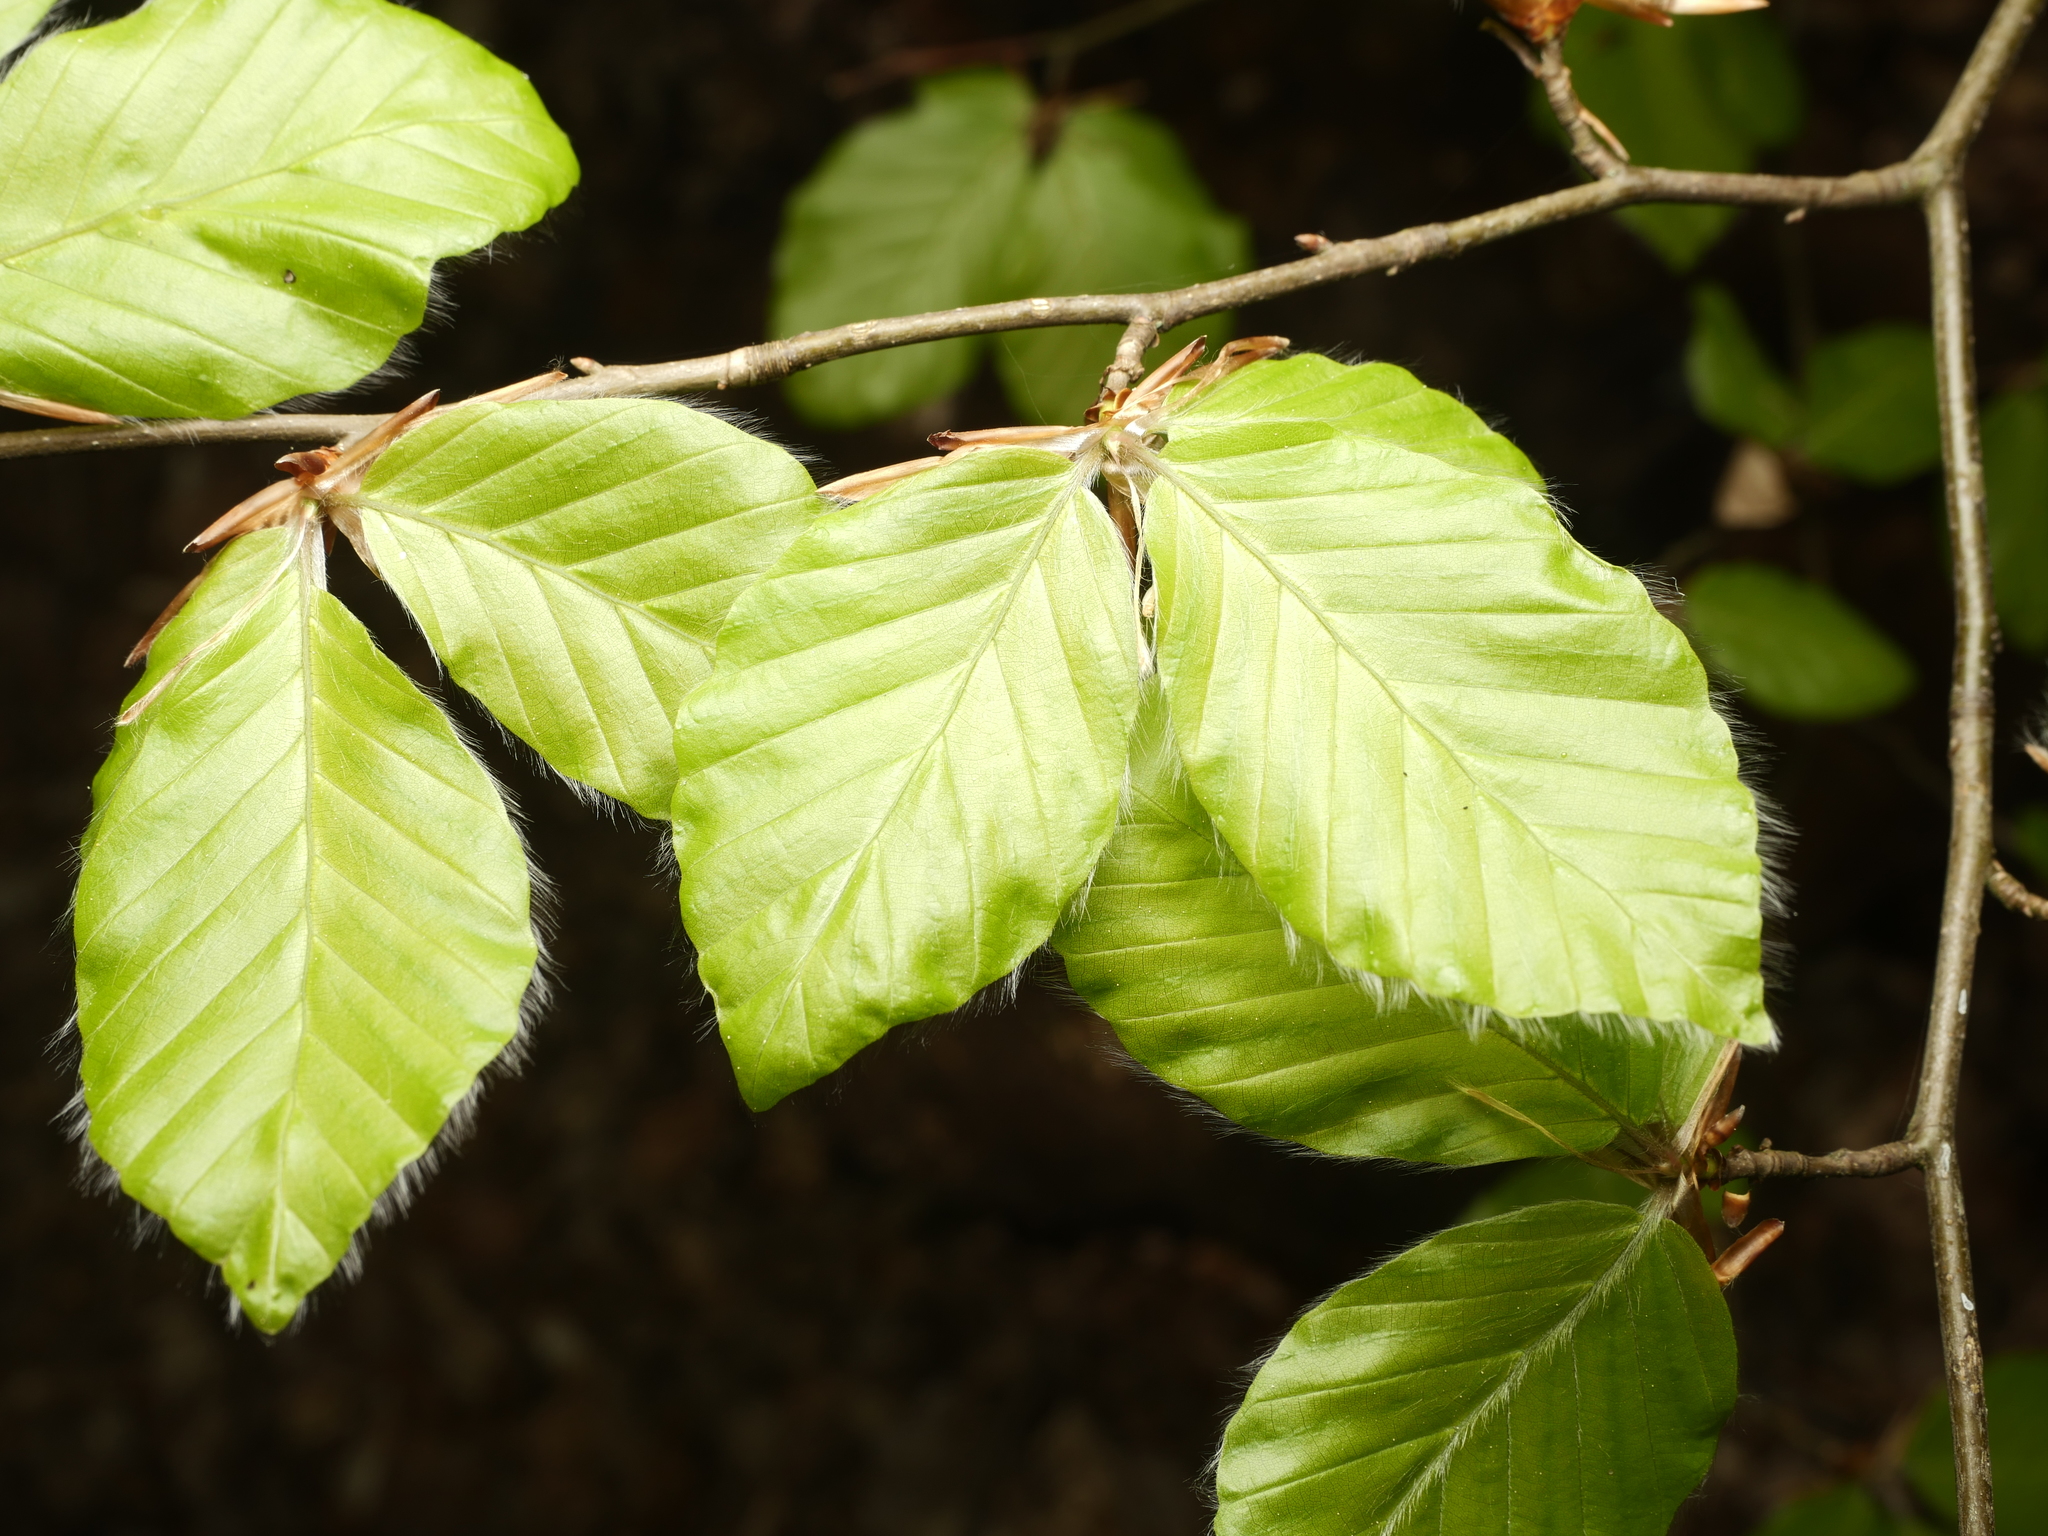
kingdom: Plantae
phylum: Tracheophyta
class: Magnoliopsida
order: Fagales
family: Fagaceae
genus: Fagus
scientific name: Fagus sylvatica
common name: Beech
